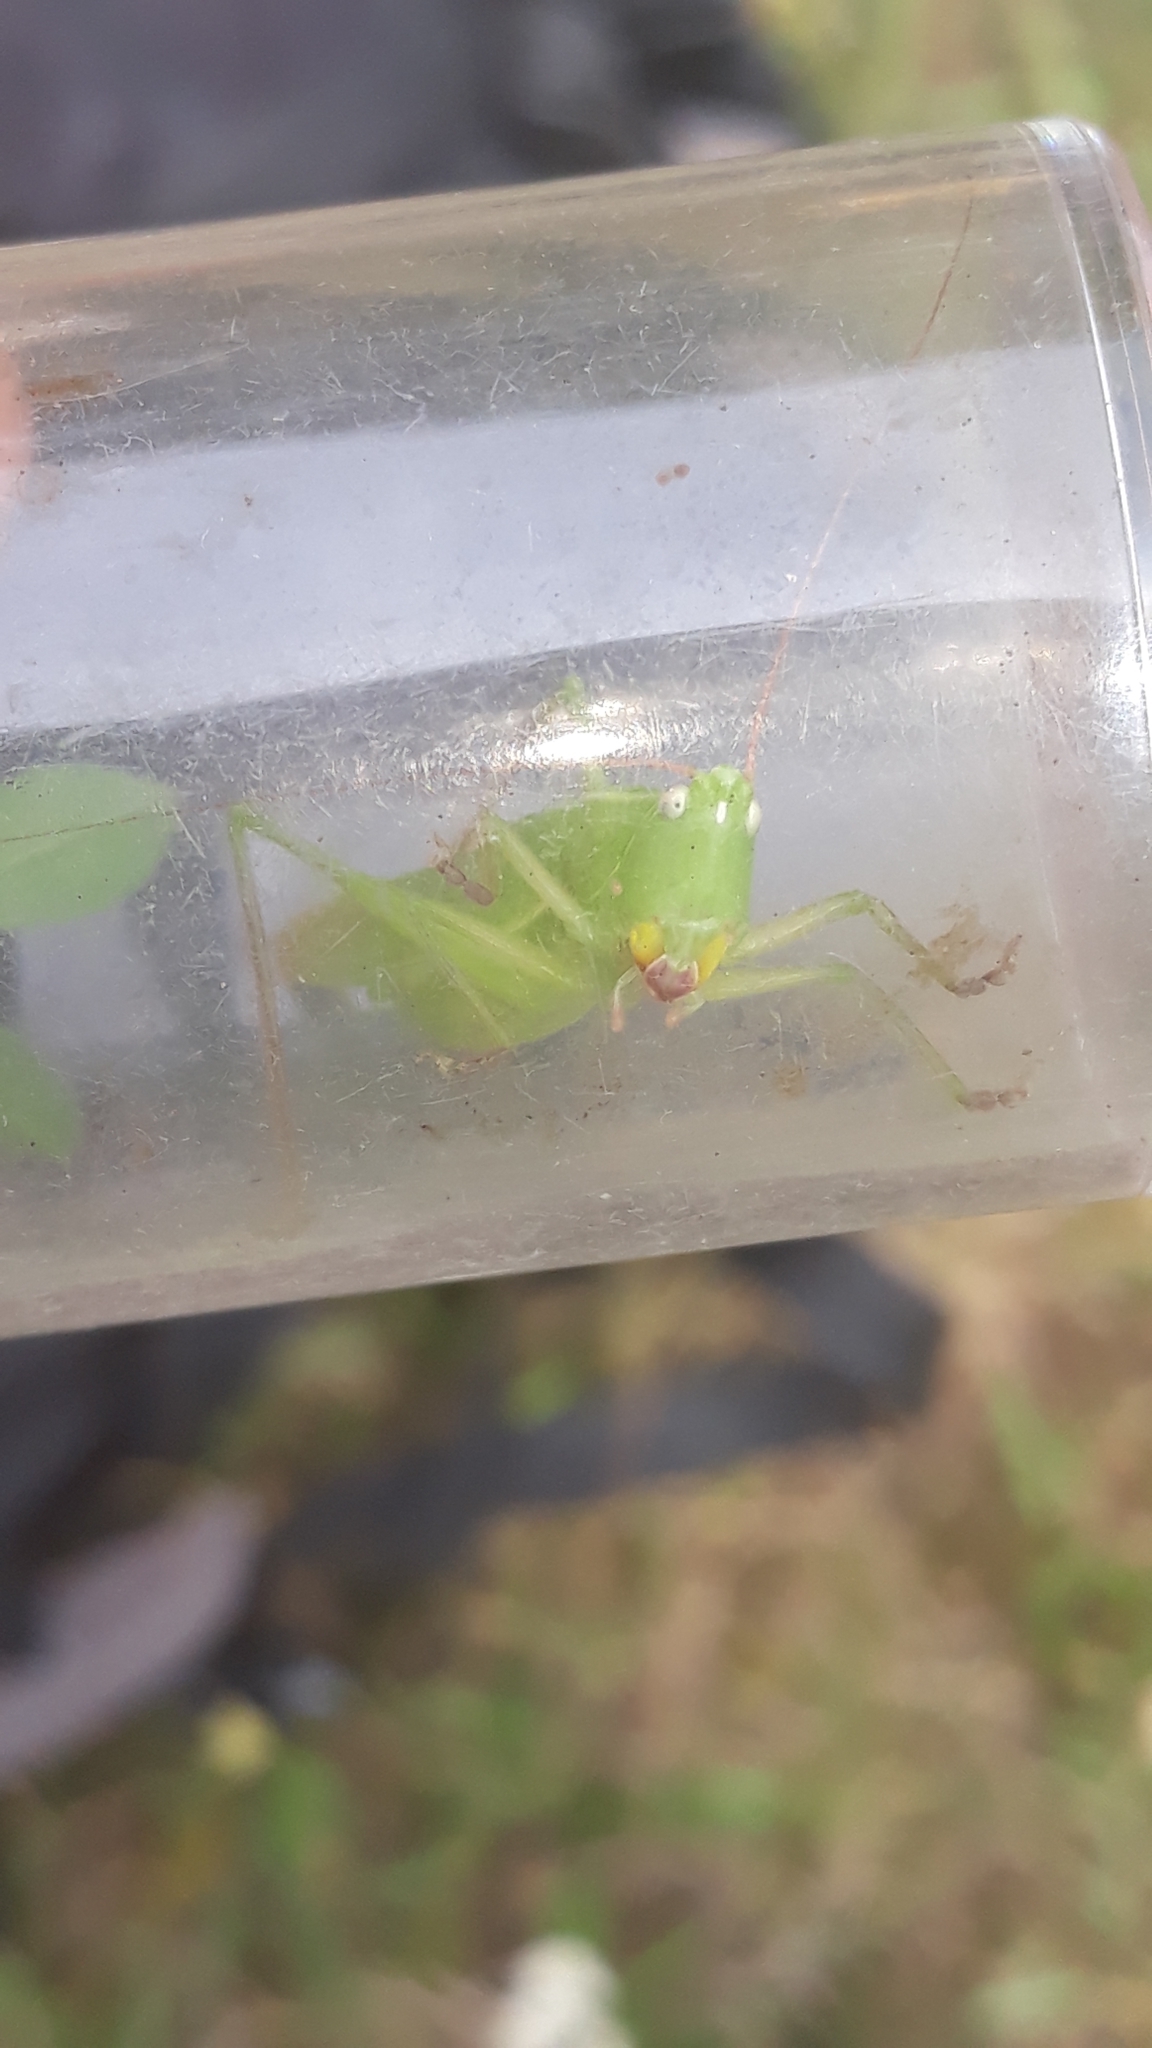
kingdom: Animalia
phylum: Arthropoda
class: Insecta
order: Orthoptera
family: Tettigoniidae
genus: Ruspolia
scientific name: Ruspolia nitidula
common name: Large conehead
